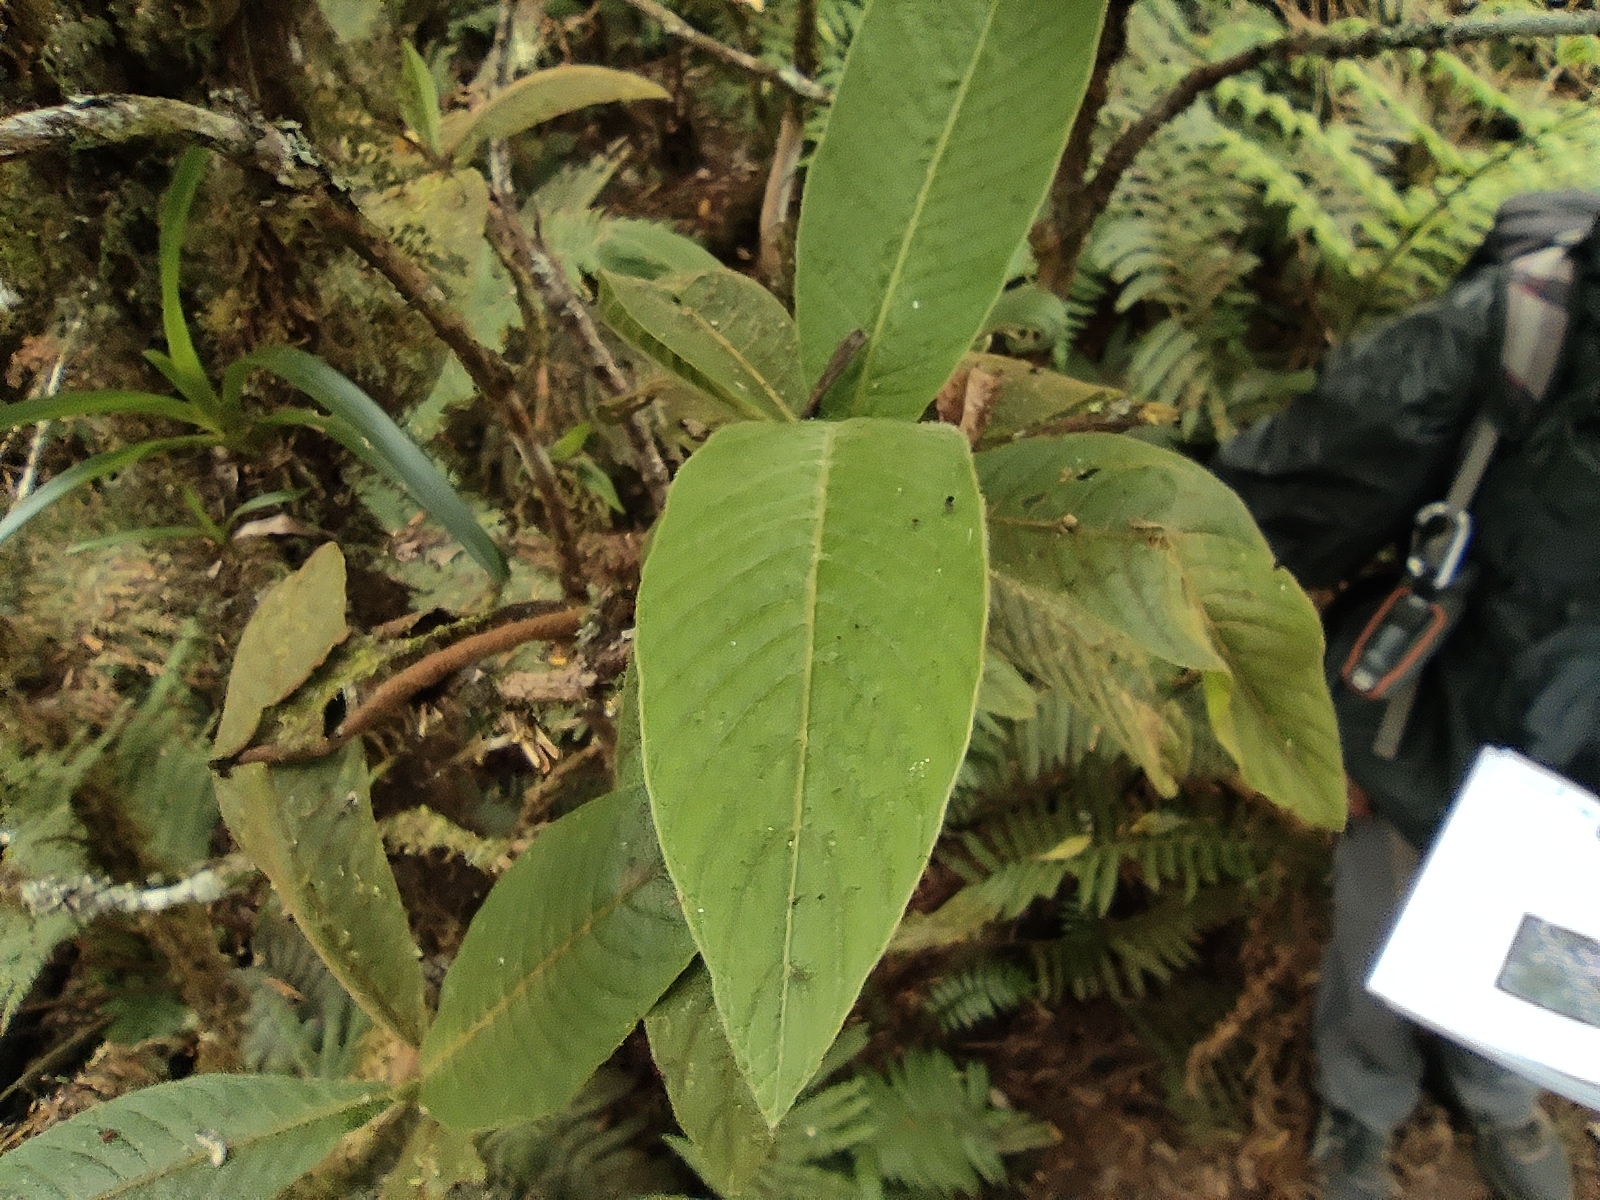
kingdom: Plantae
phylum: Tracheophyta
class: Magnoliopsida
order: Gentianales
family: Rubiaceae
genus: Bertiera
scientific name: Bertiera rufa
